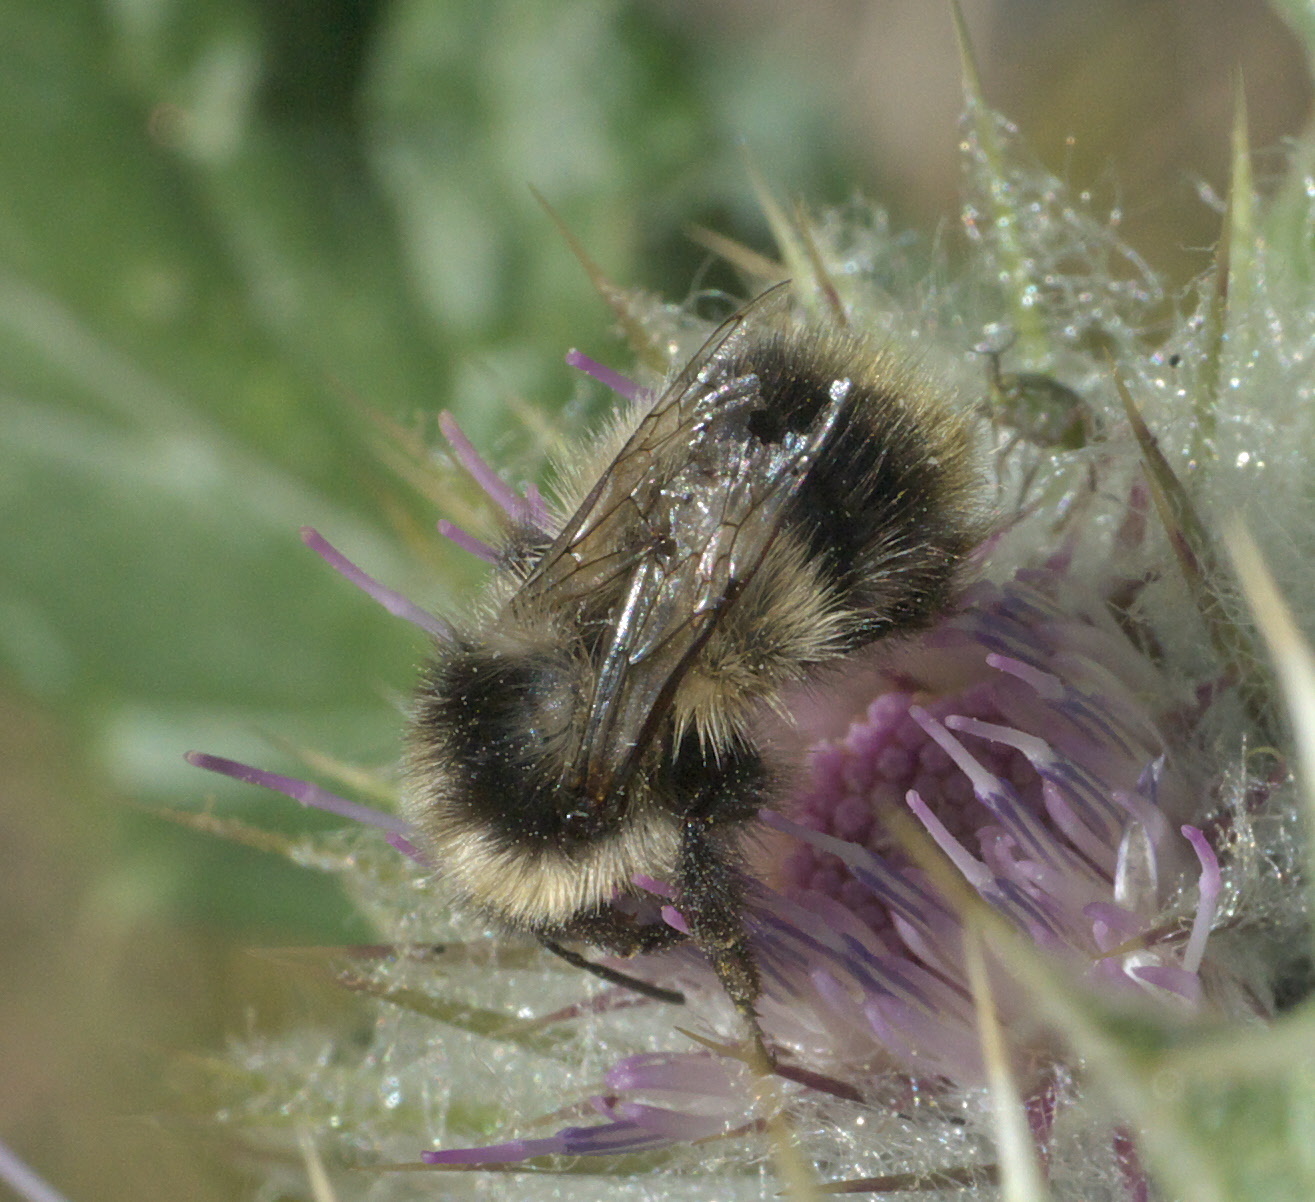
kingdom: Animalia
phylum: Arthropoda
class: Insecta
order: Hymenoptera
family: Apidae
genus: Bombus
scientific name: Bombus kirbiellus
